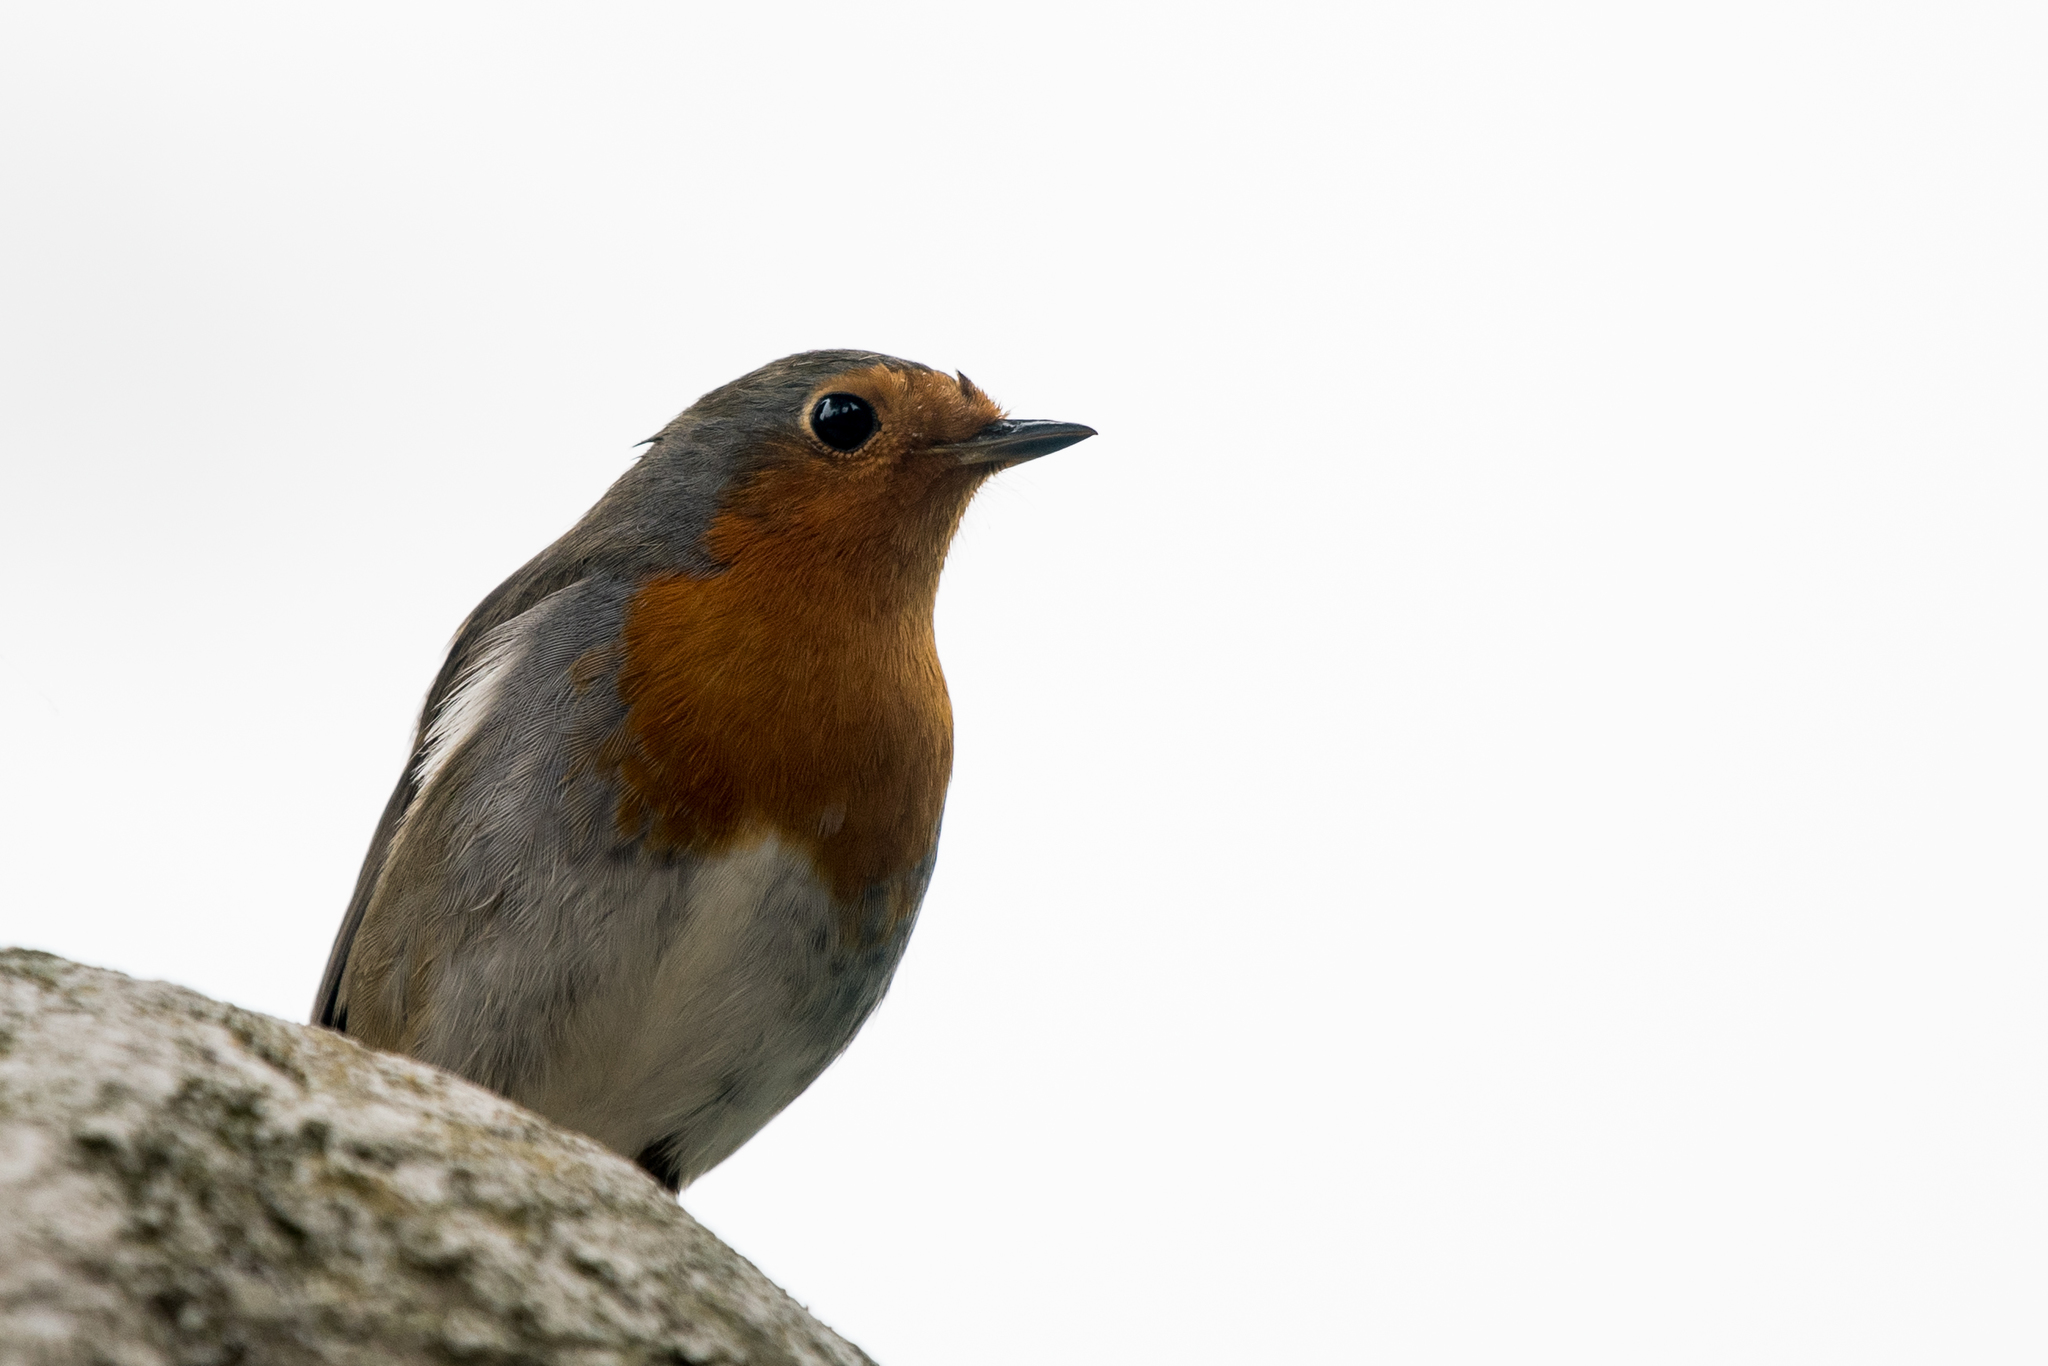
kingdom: Animalia
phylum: Chordata
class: Aves
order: Passeriformes
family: Muscicapidae
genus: Erithacus
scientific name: Erithacus rubecula
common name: European robin
